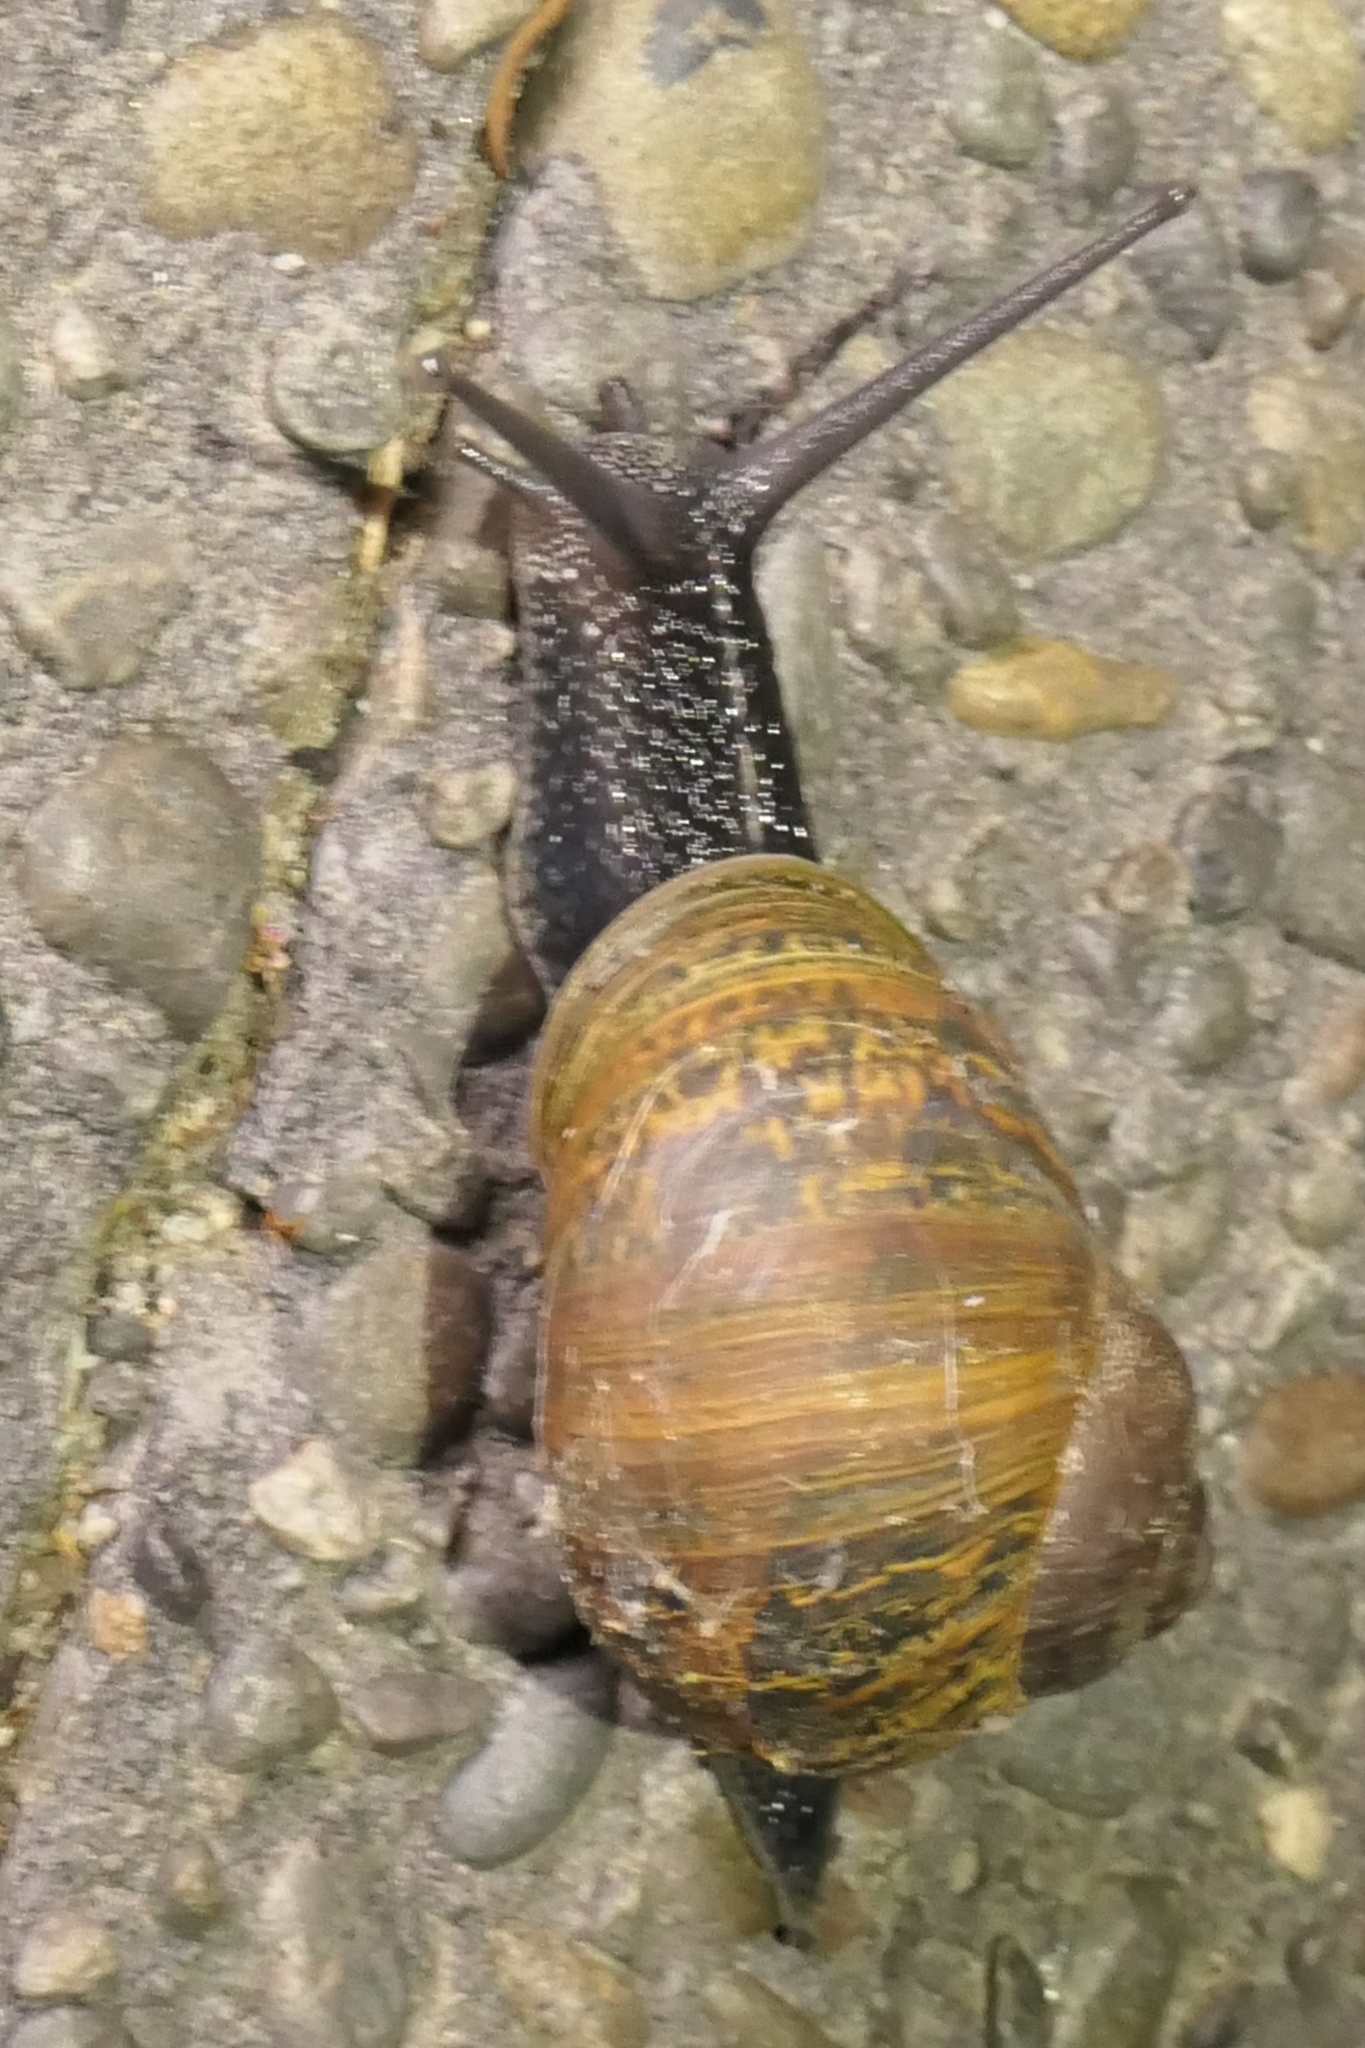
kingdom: Animalia
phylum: Mollusca
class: Gastropoda
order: Stylommatophora
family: Helicidae
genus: Cornu
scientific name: Cornu aspersum
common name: Brown garden snail
